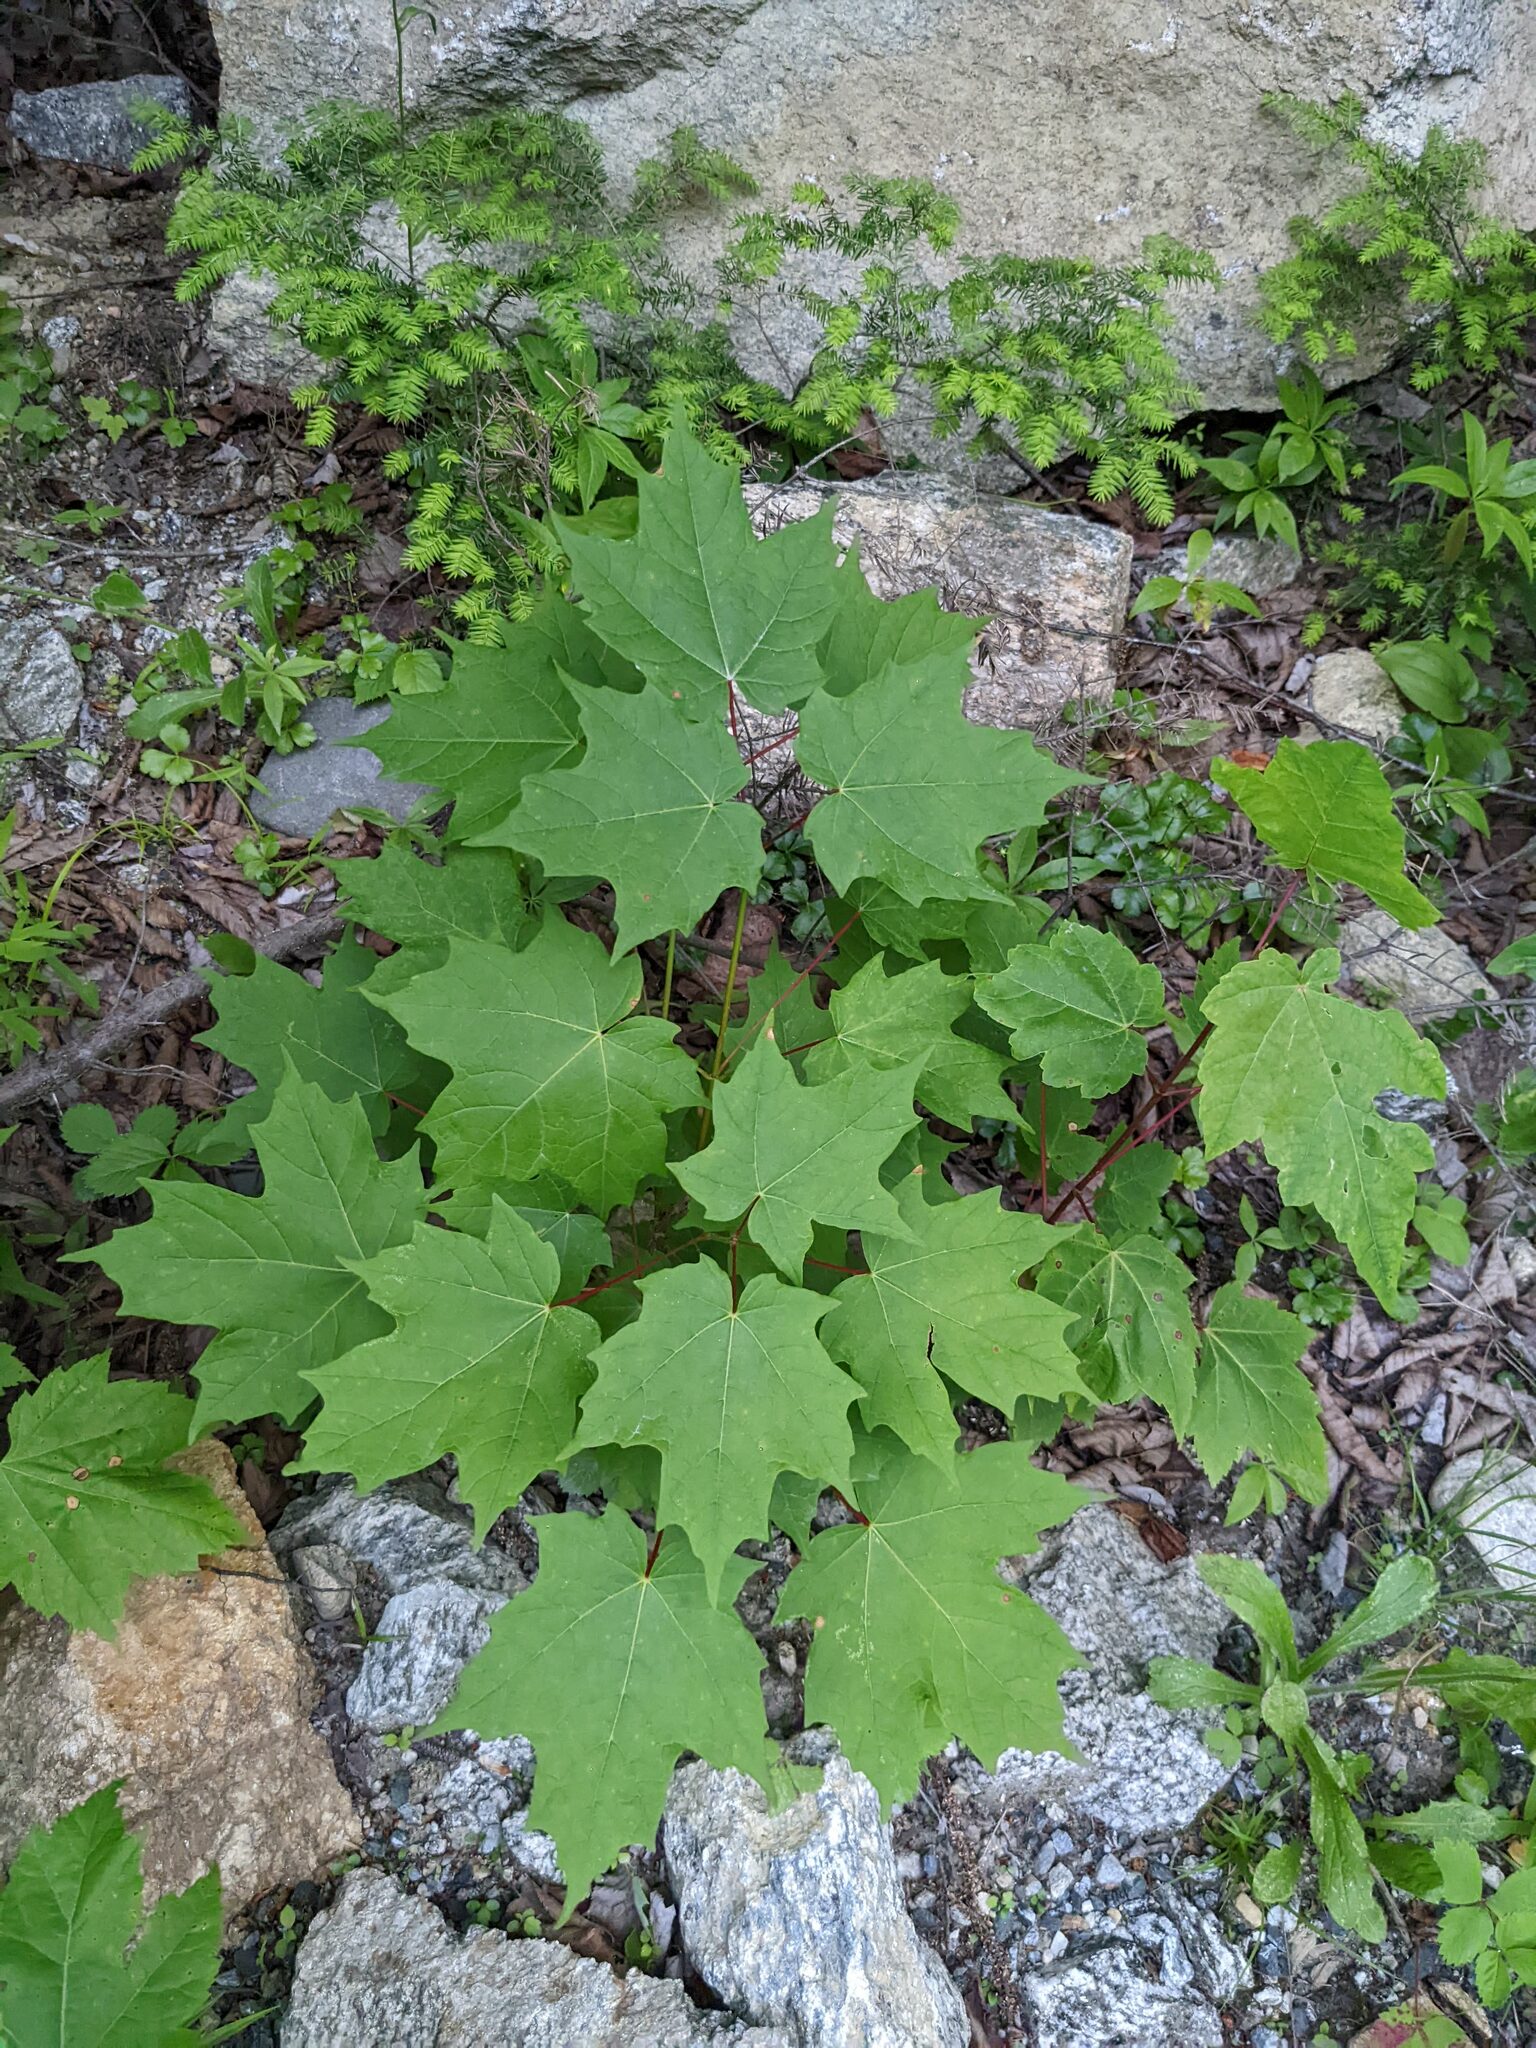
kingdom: Plantae
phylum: Tracheophyta
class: Magnoliopsida
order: Sapindales
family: Sapindaceae
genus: Acer
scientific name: Acer saccharum
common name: Sugar maple
